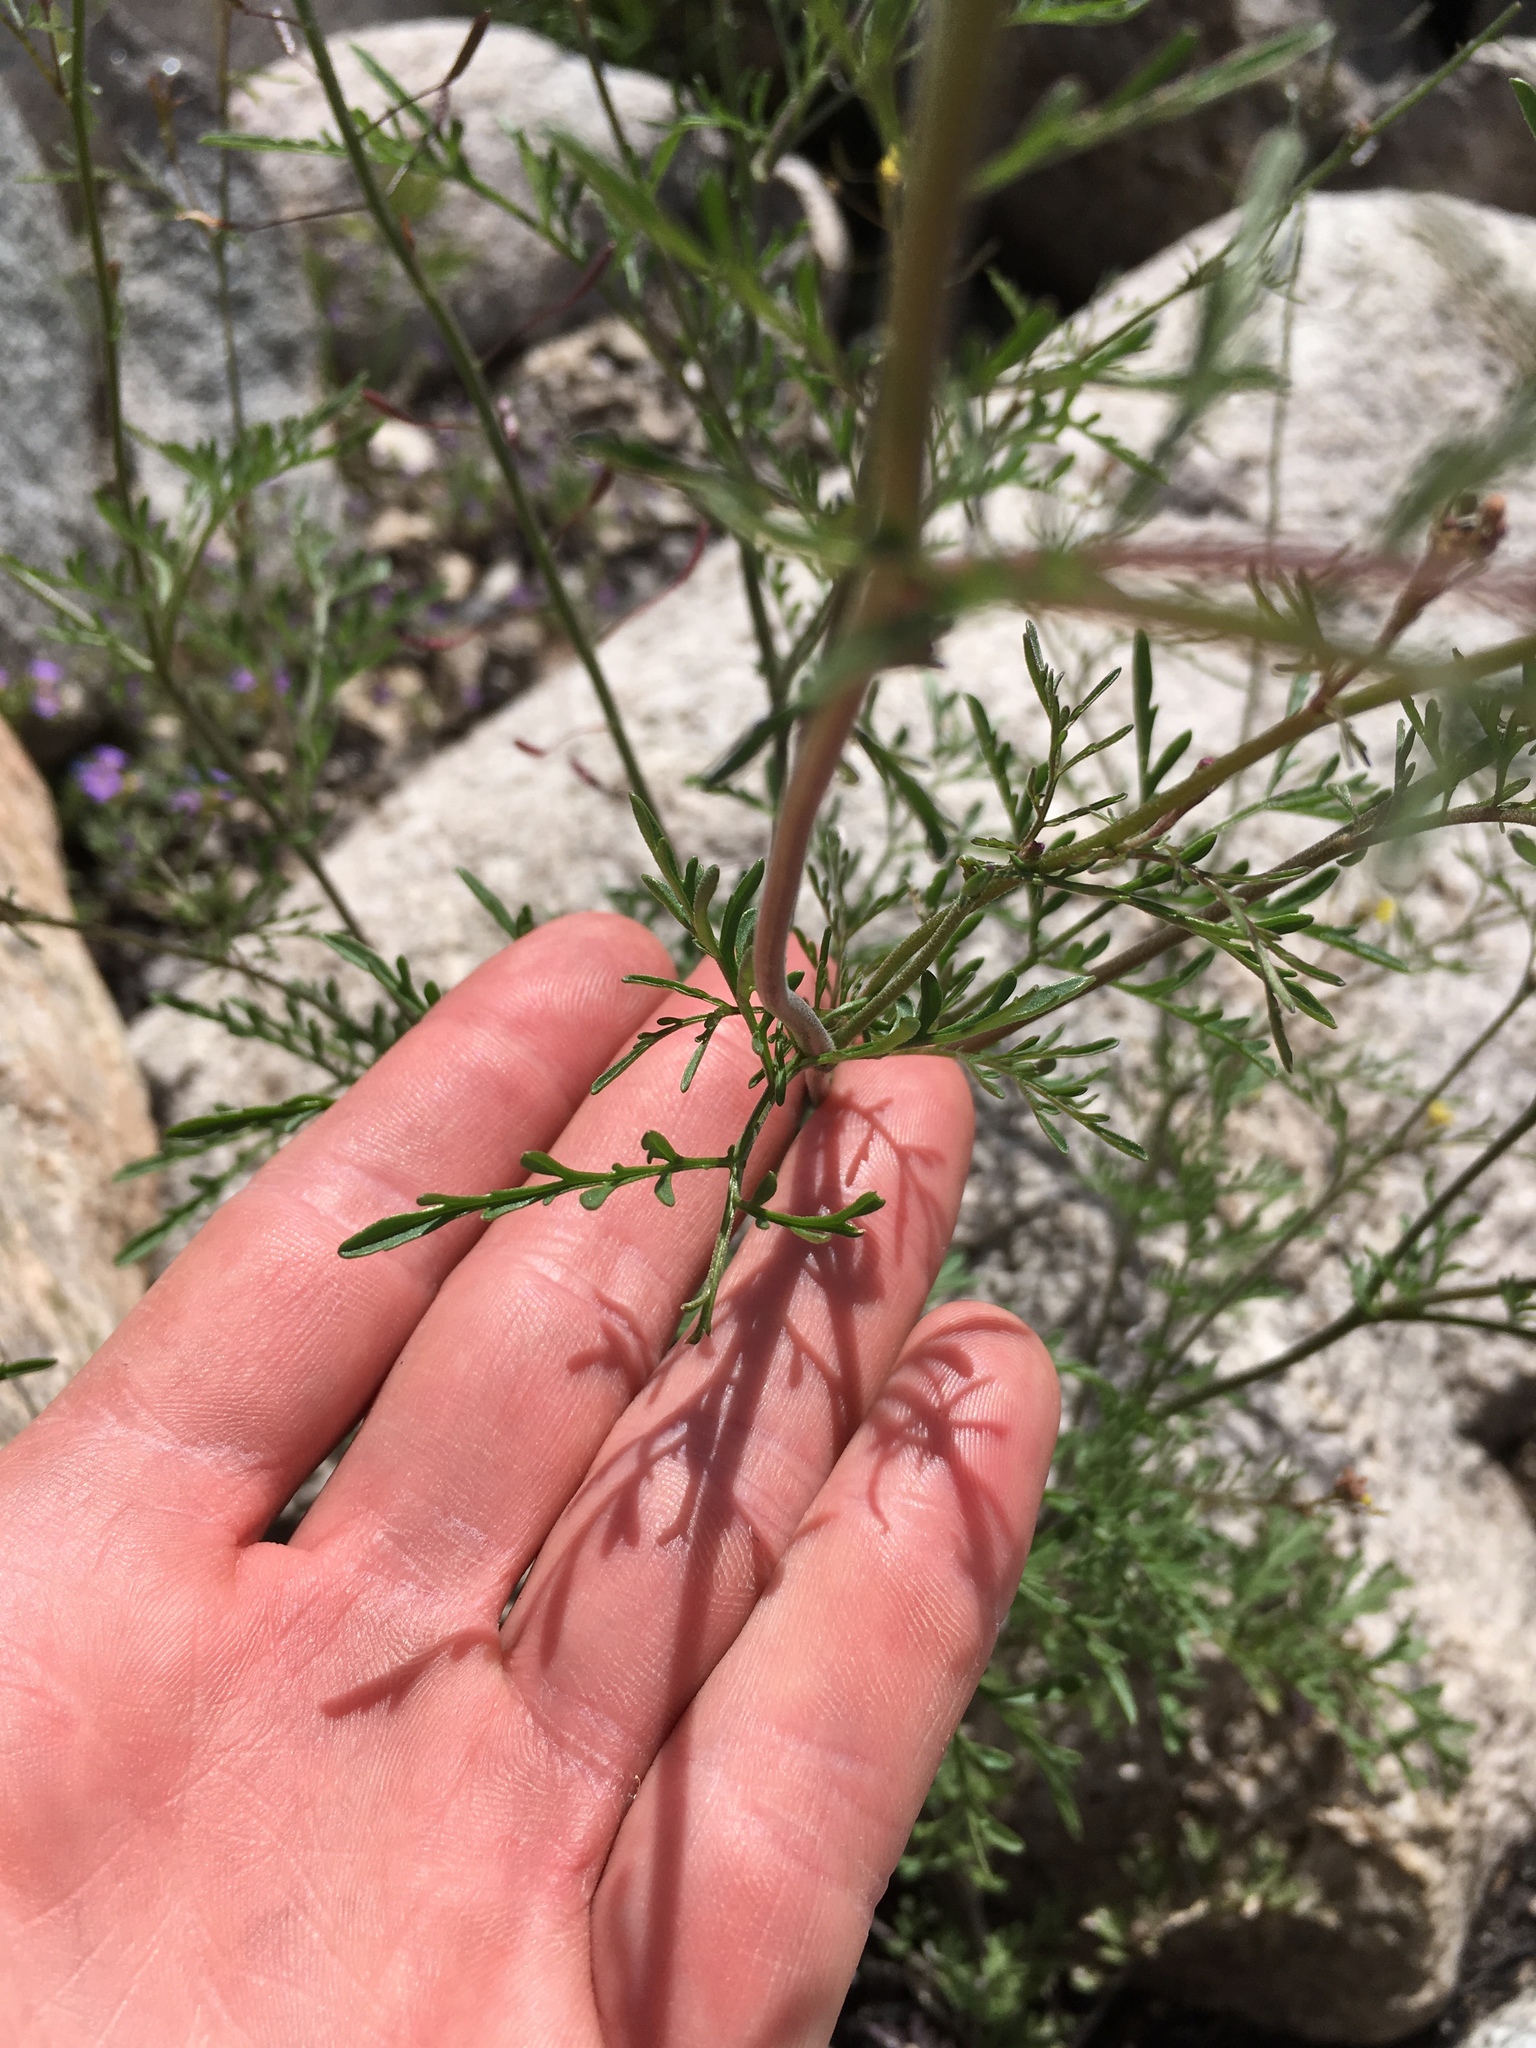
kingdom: Plantae
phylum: Tracheophyta
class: Magnoliopsida
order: Brassicales
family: Brassicaceae
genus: Descurainia
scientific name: Descurainia pinnata
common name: Western tansy mustard
